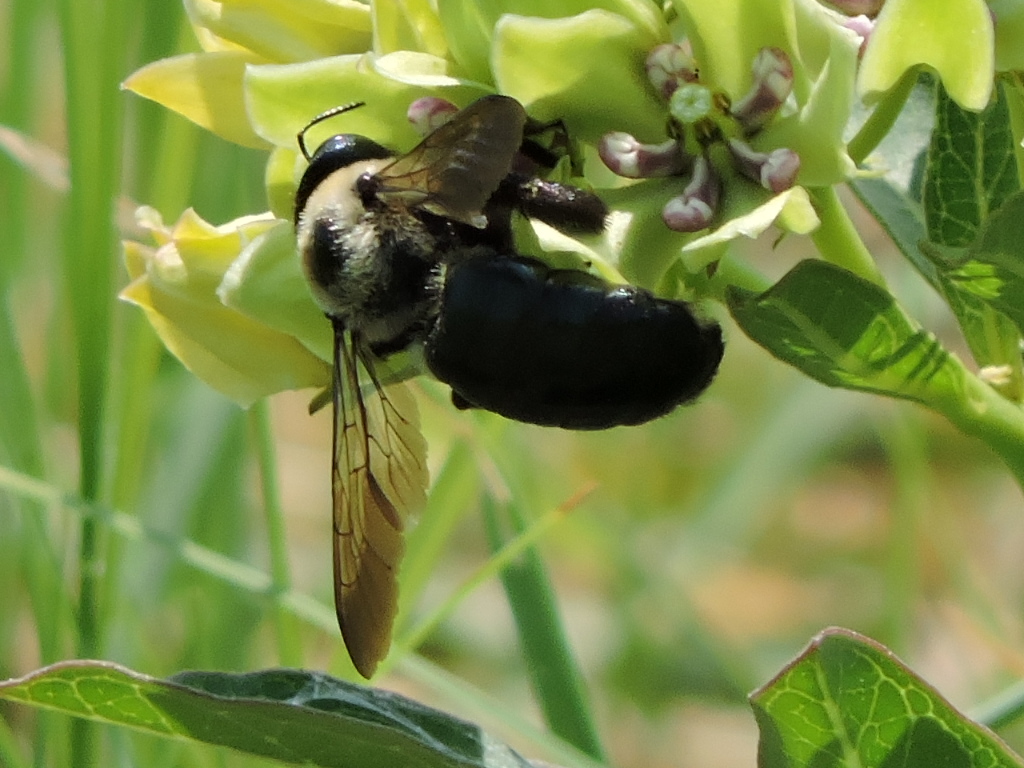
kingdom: Animalia
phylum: Arthropoda
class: Insecta
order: Hymenoptera
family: Apidae
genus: Xylocopa
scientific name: Xylocopa virginica
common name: Carpenter bee
